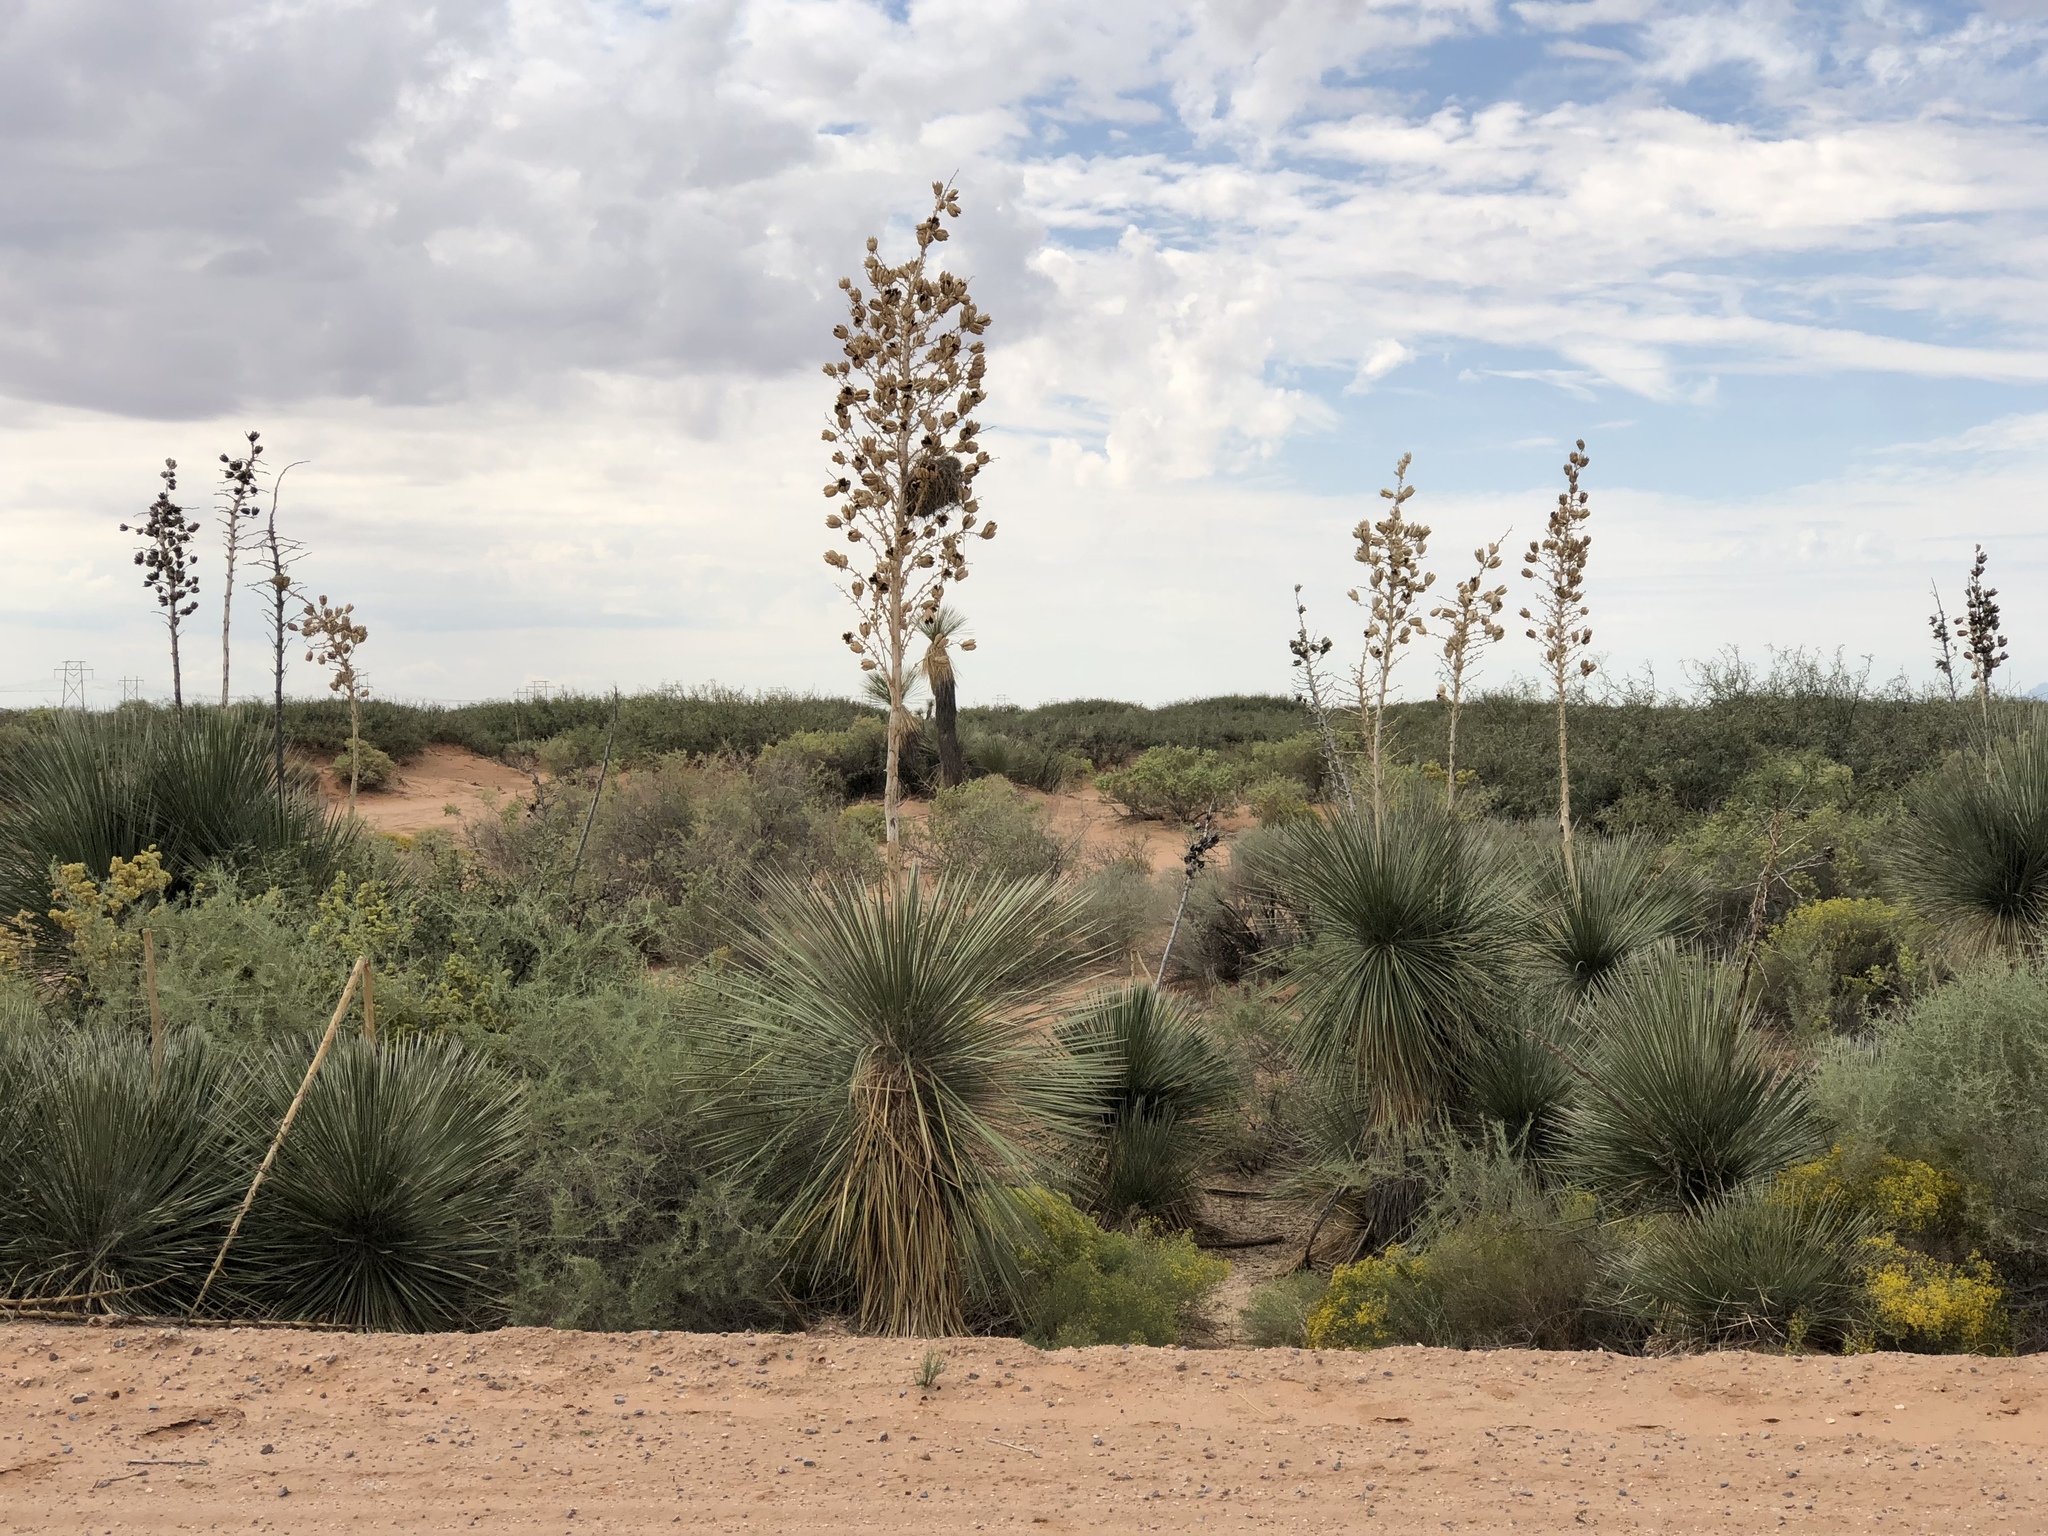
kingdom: Plantae
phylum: Tracheophyta
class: Liliopsida
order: Asparagales
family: Asparagaceae
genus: Yucca
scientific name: Yucca elata
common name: Palmella
